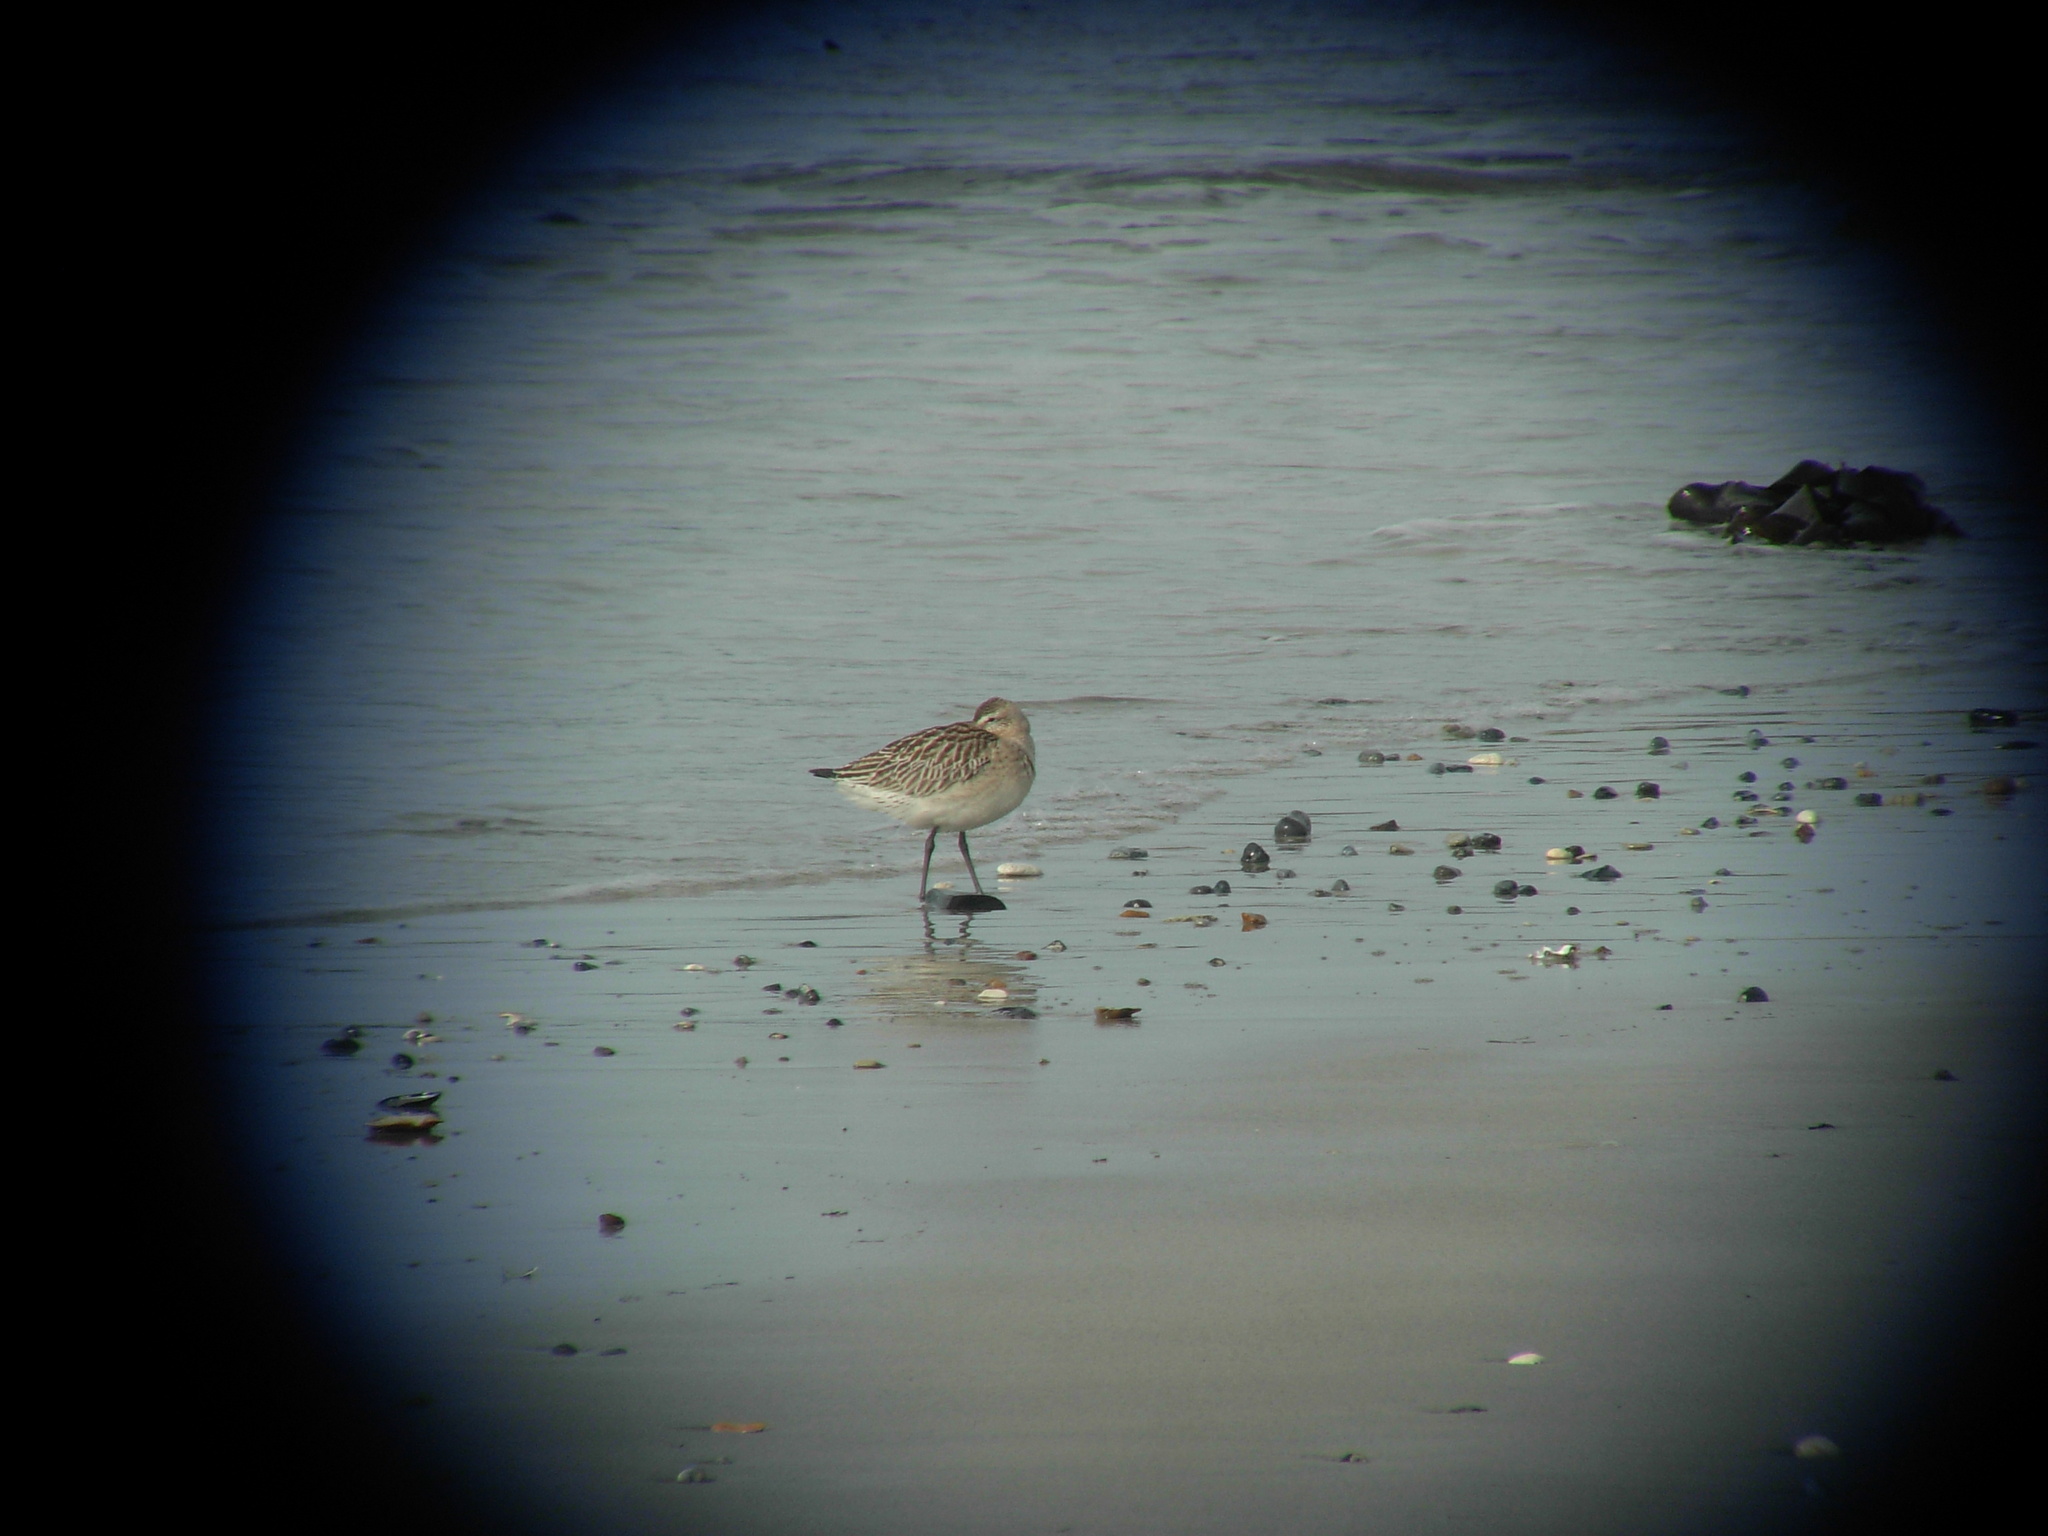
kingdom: Animalia
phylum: Chordata
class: Aves
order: Charadriiformes
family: Scolopacidae
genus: Limosa
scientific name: Limosa lapponica
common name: Bar-tailed godwit
